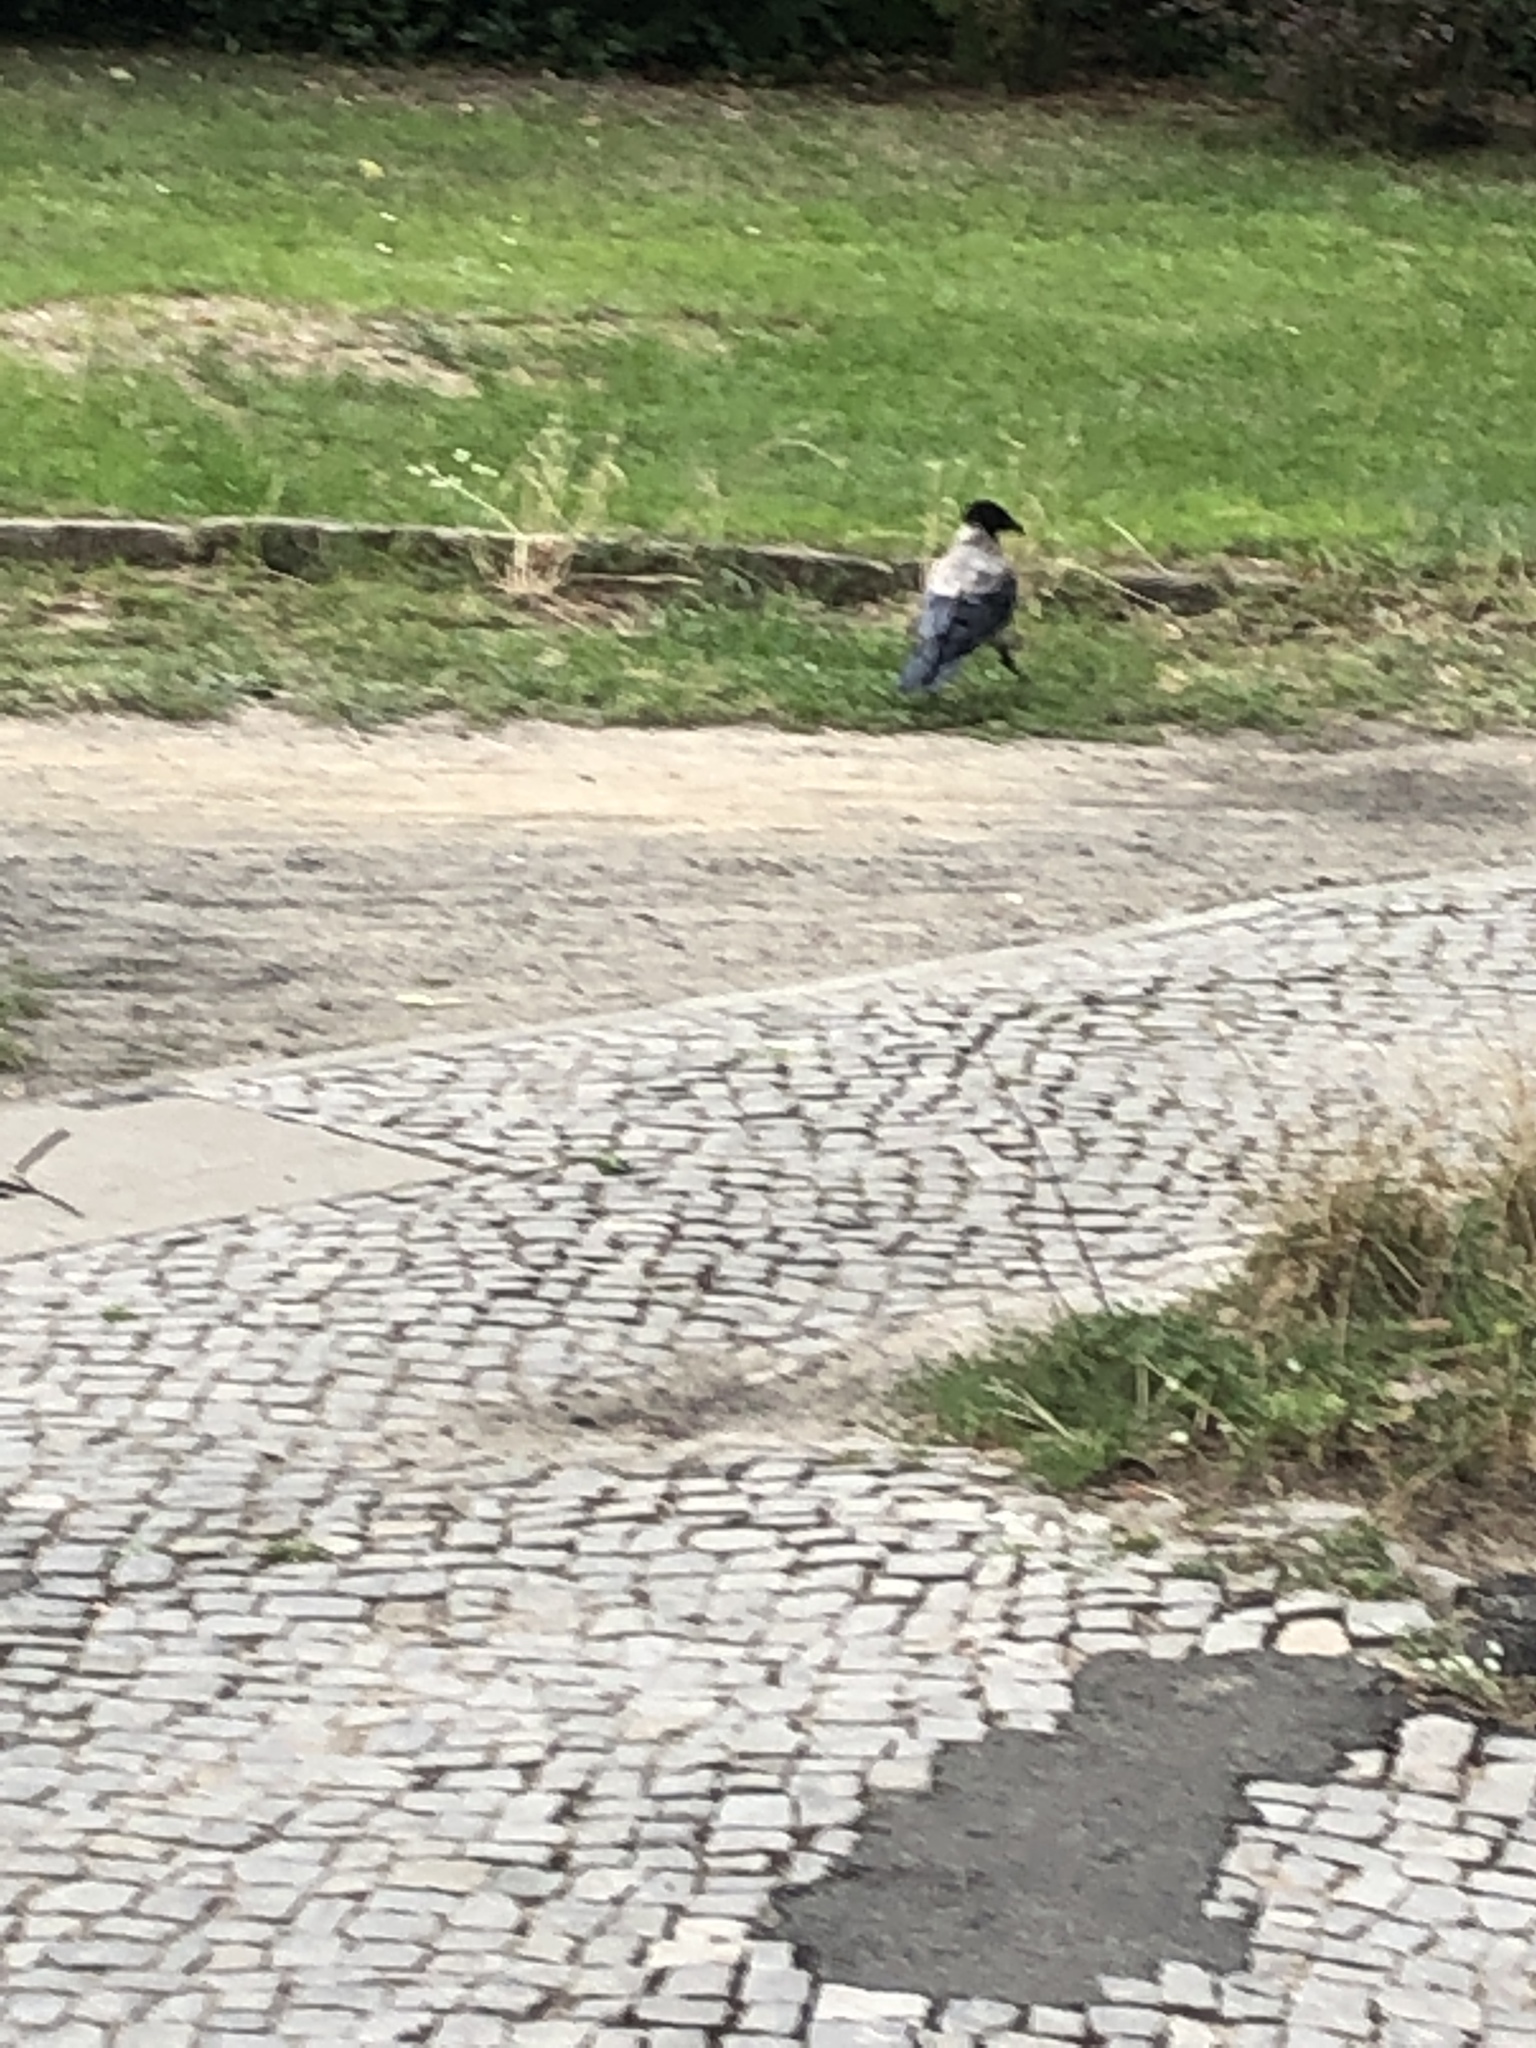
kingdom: Animalia
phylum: Chordata
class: Aves
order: Passeriformes
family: Corvidae
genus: Corvus
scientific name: Corvus cornix
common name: Hooded crow
